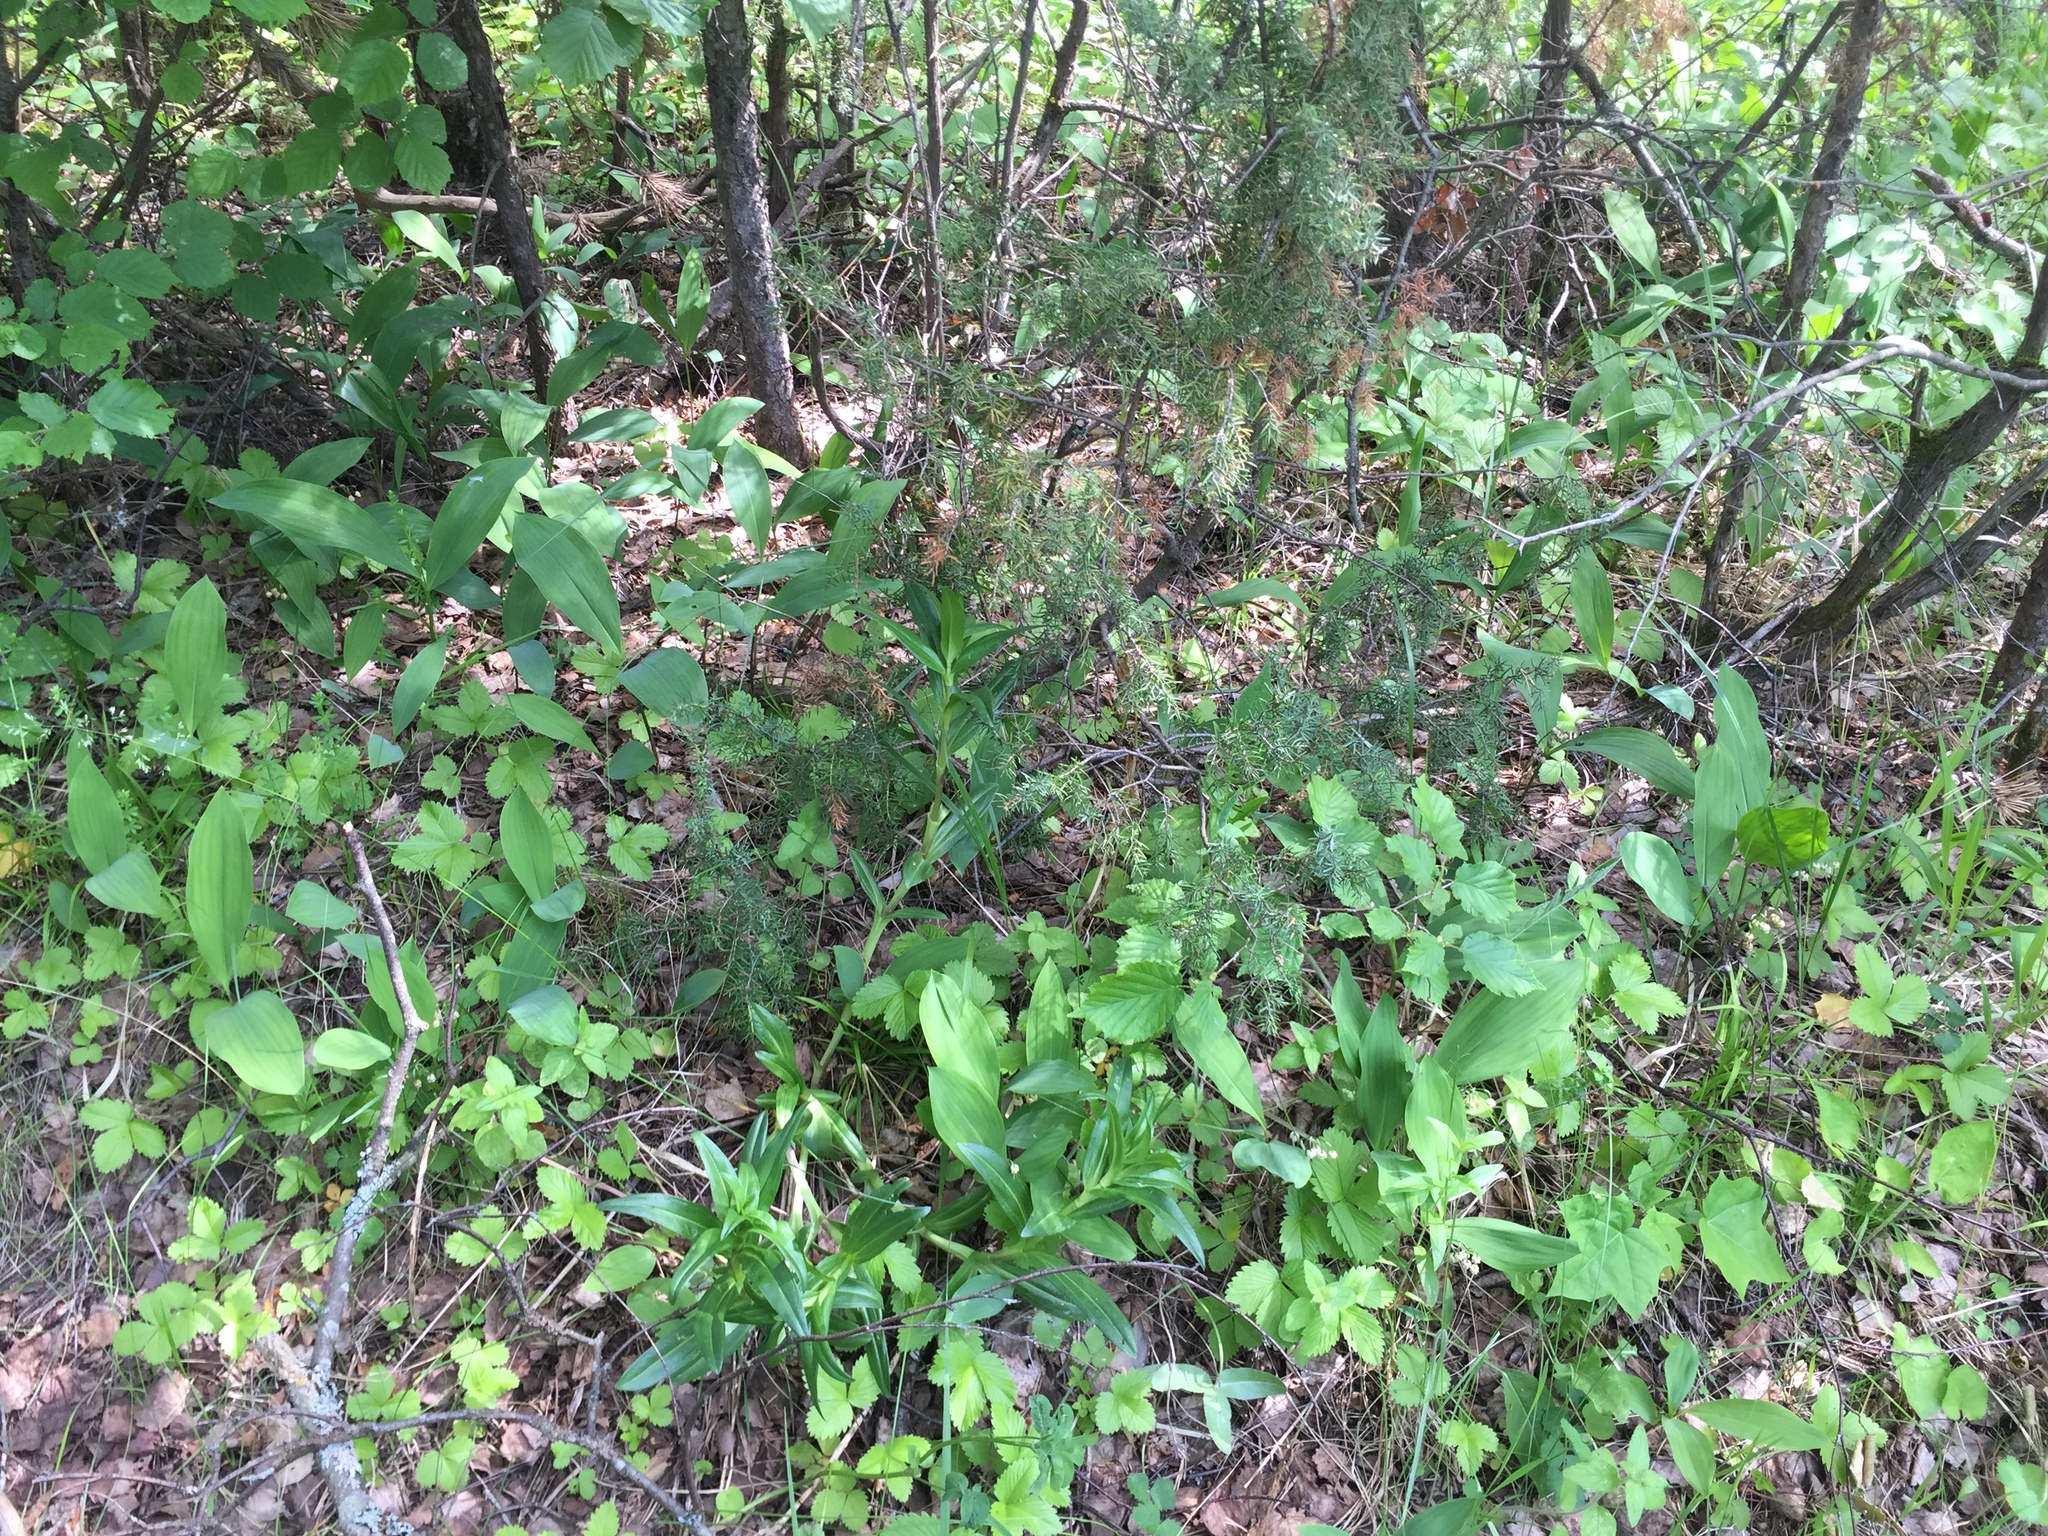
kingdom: Plantae
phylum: Tracheophyta
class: Magnoliopsida
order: Gentianales
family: Gentianaceae
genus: Gentiana
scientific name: Gentiana cruciata
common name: Cross gentian
